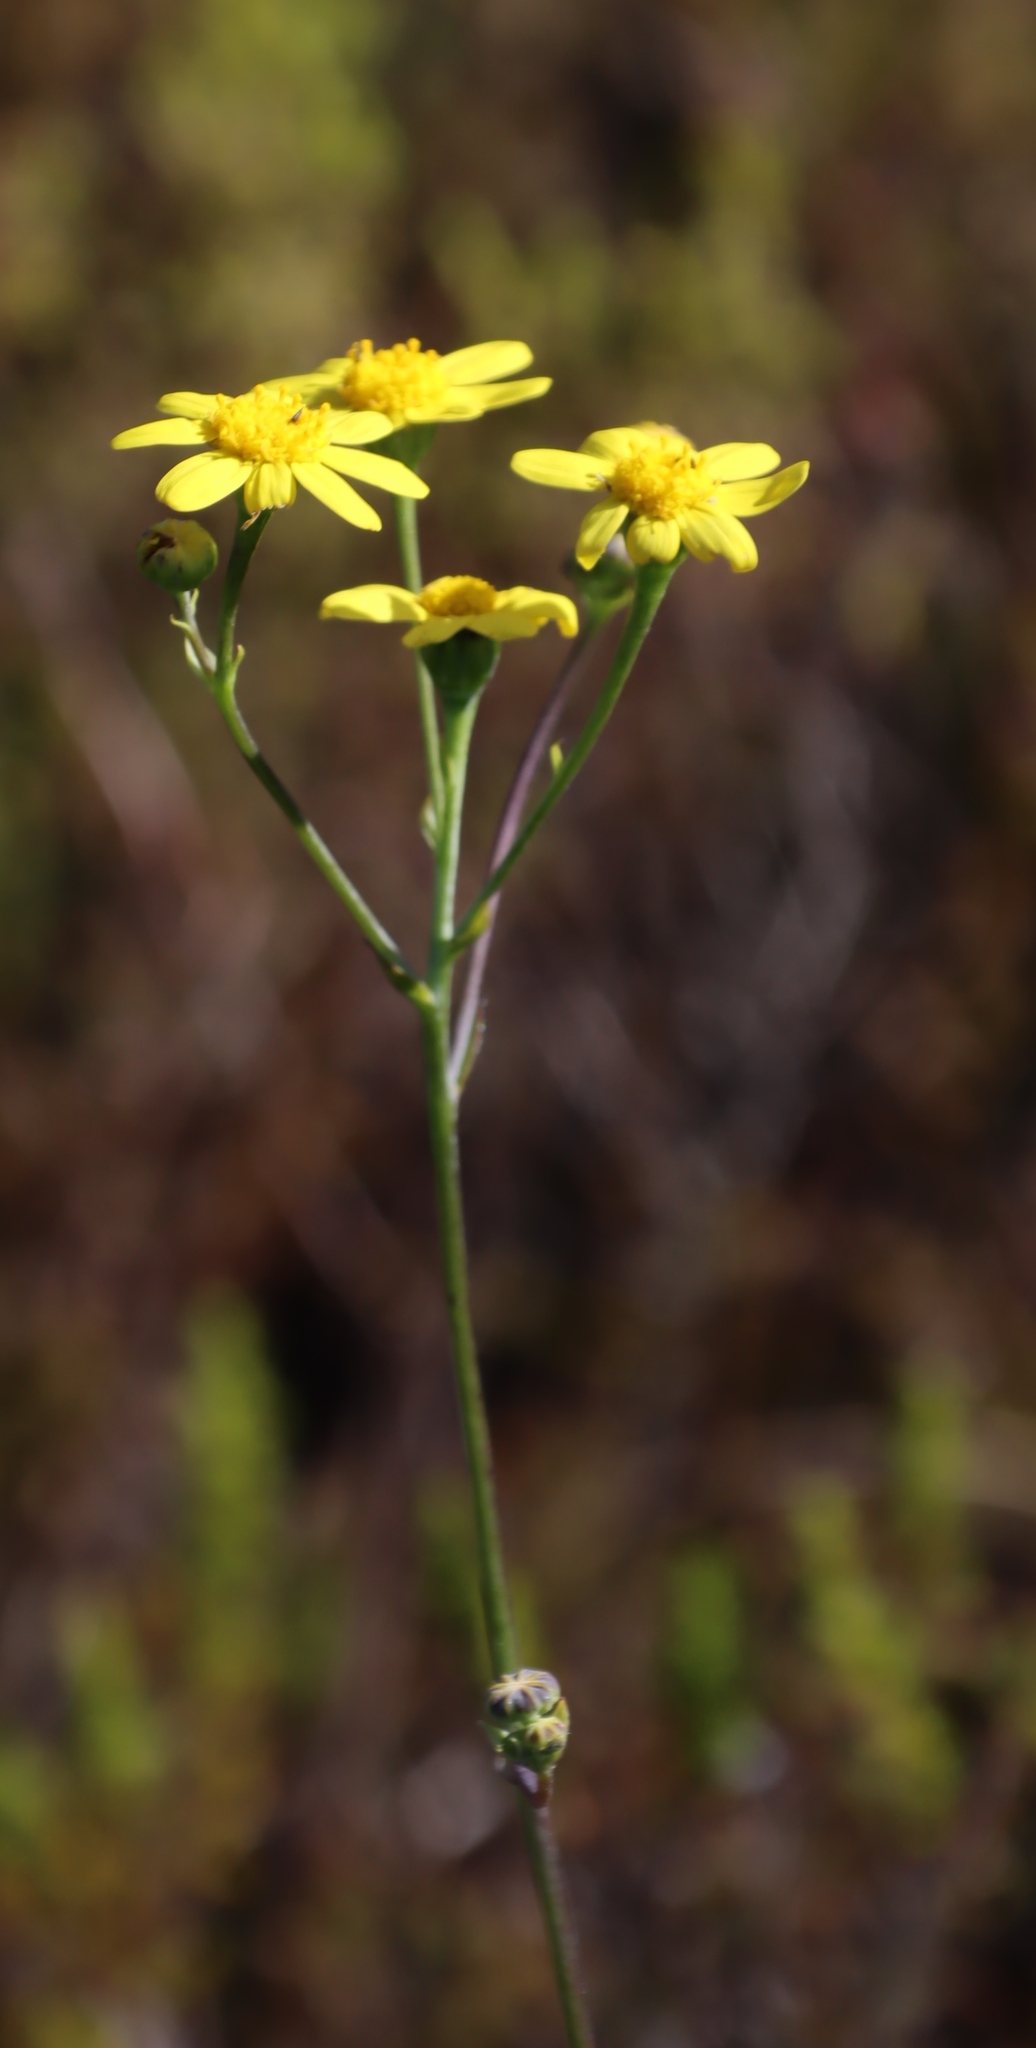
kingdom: Plantae
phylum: Tracheophyta
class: Magnoliopsida
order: Asterales
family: Asteraceae
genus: Othonna
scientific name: Othonna quinquedentata
